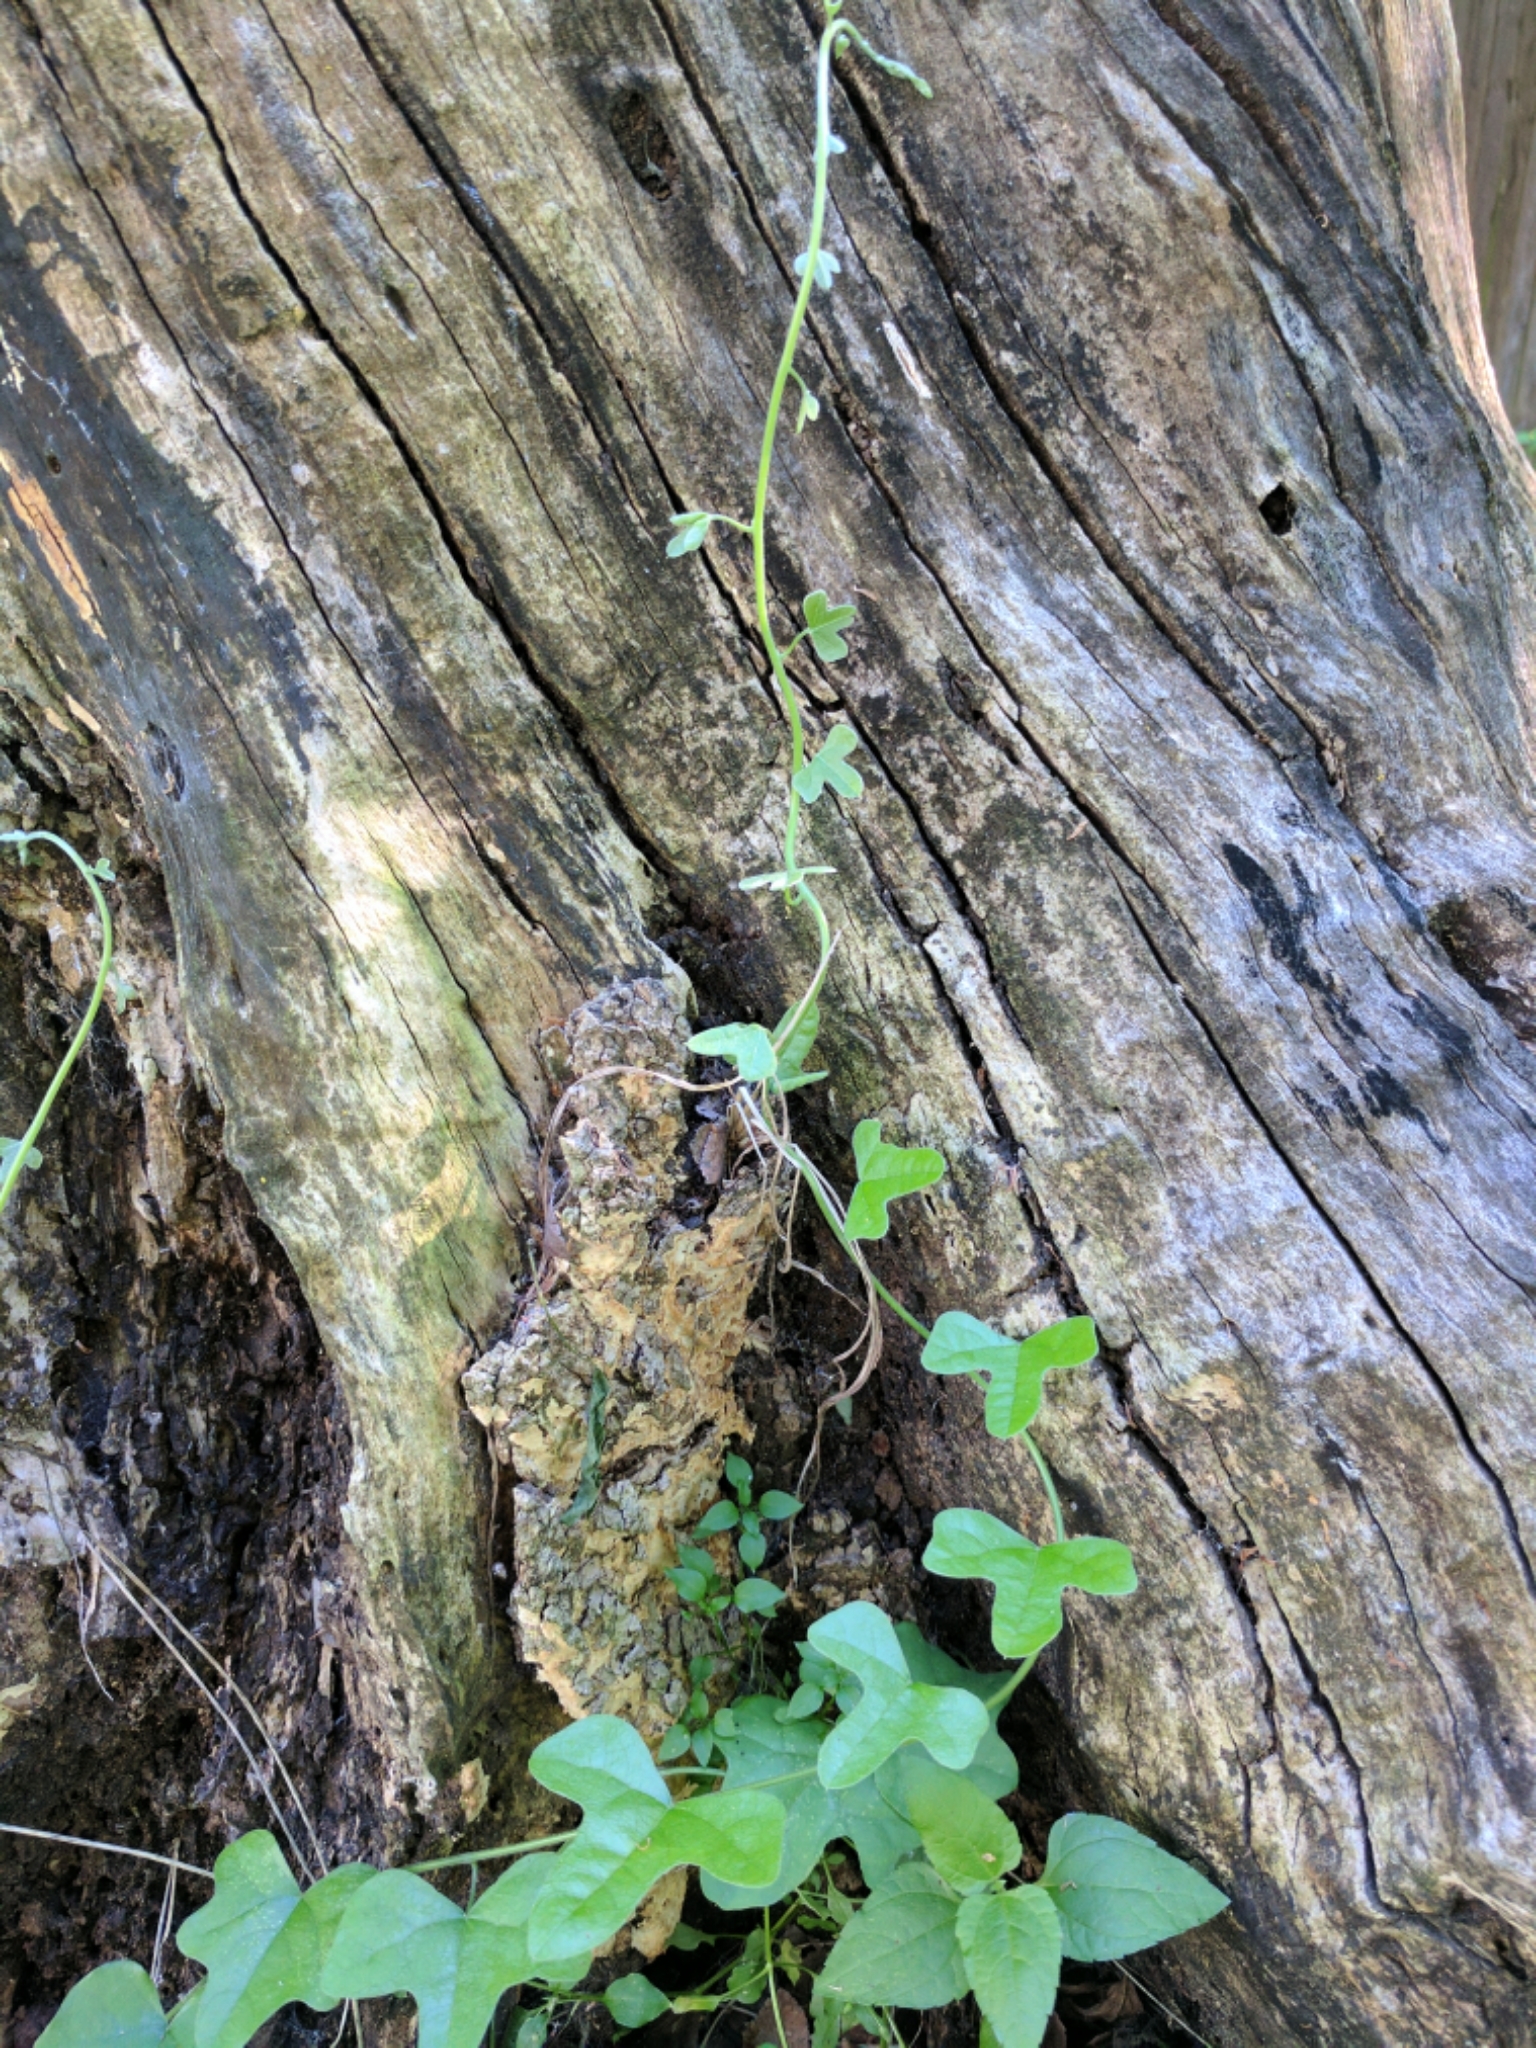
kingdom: Plantae
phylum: Tracheophyta
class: Magnoliopsida
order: Ranunculales
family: Menispermaceae
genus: Cocculus
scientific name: Cocculus carolinus
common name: Carolina moonseed
